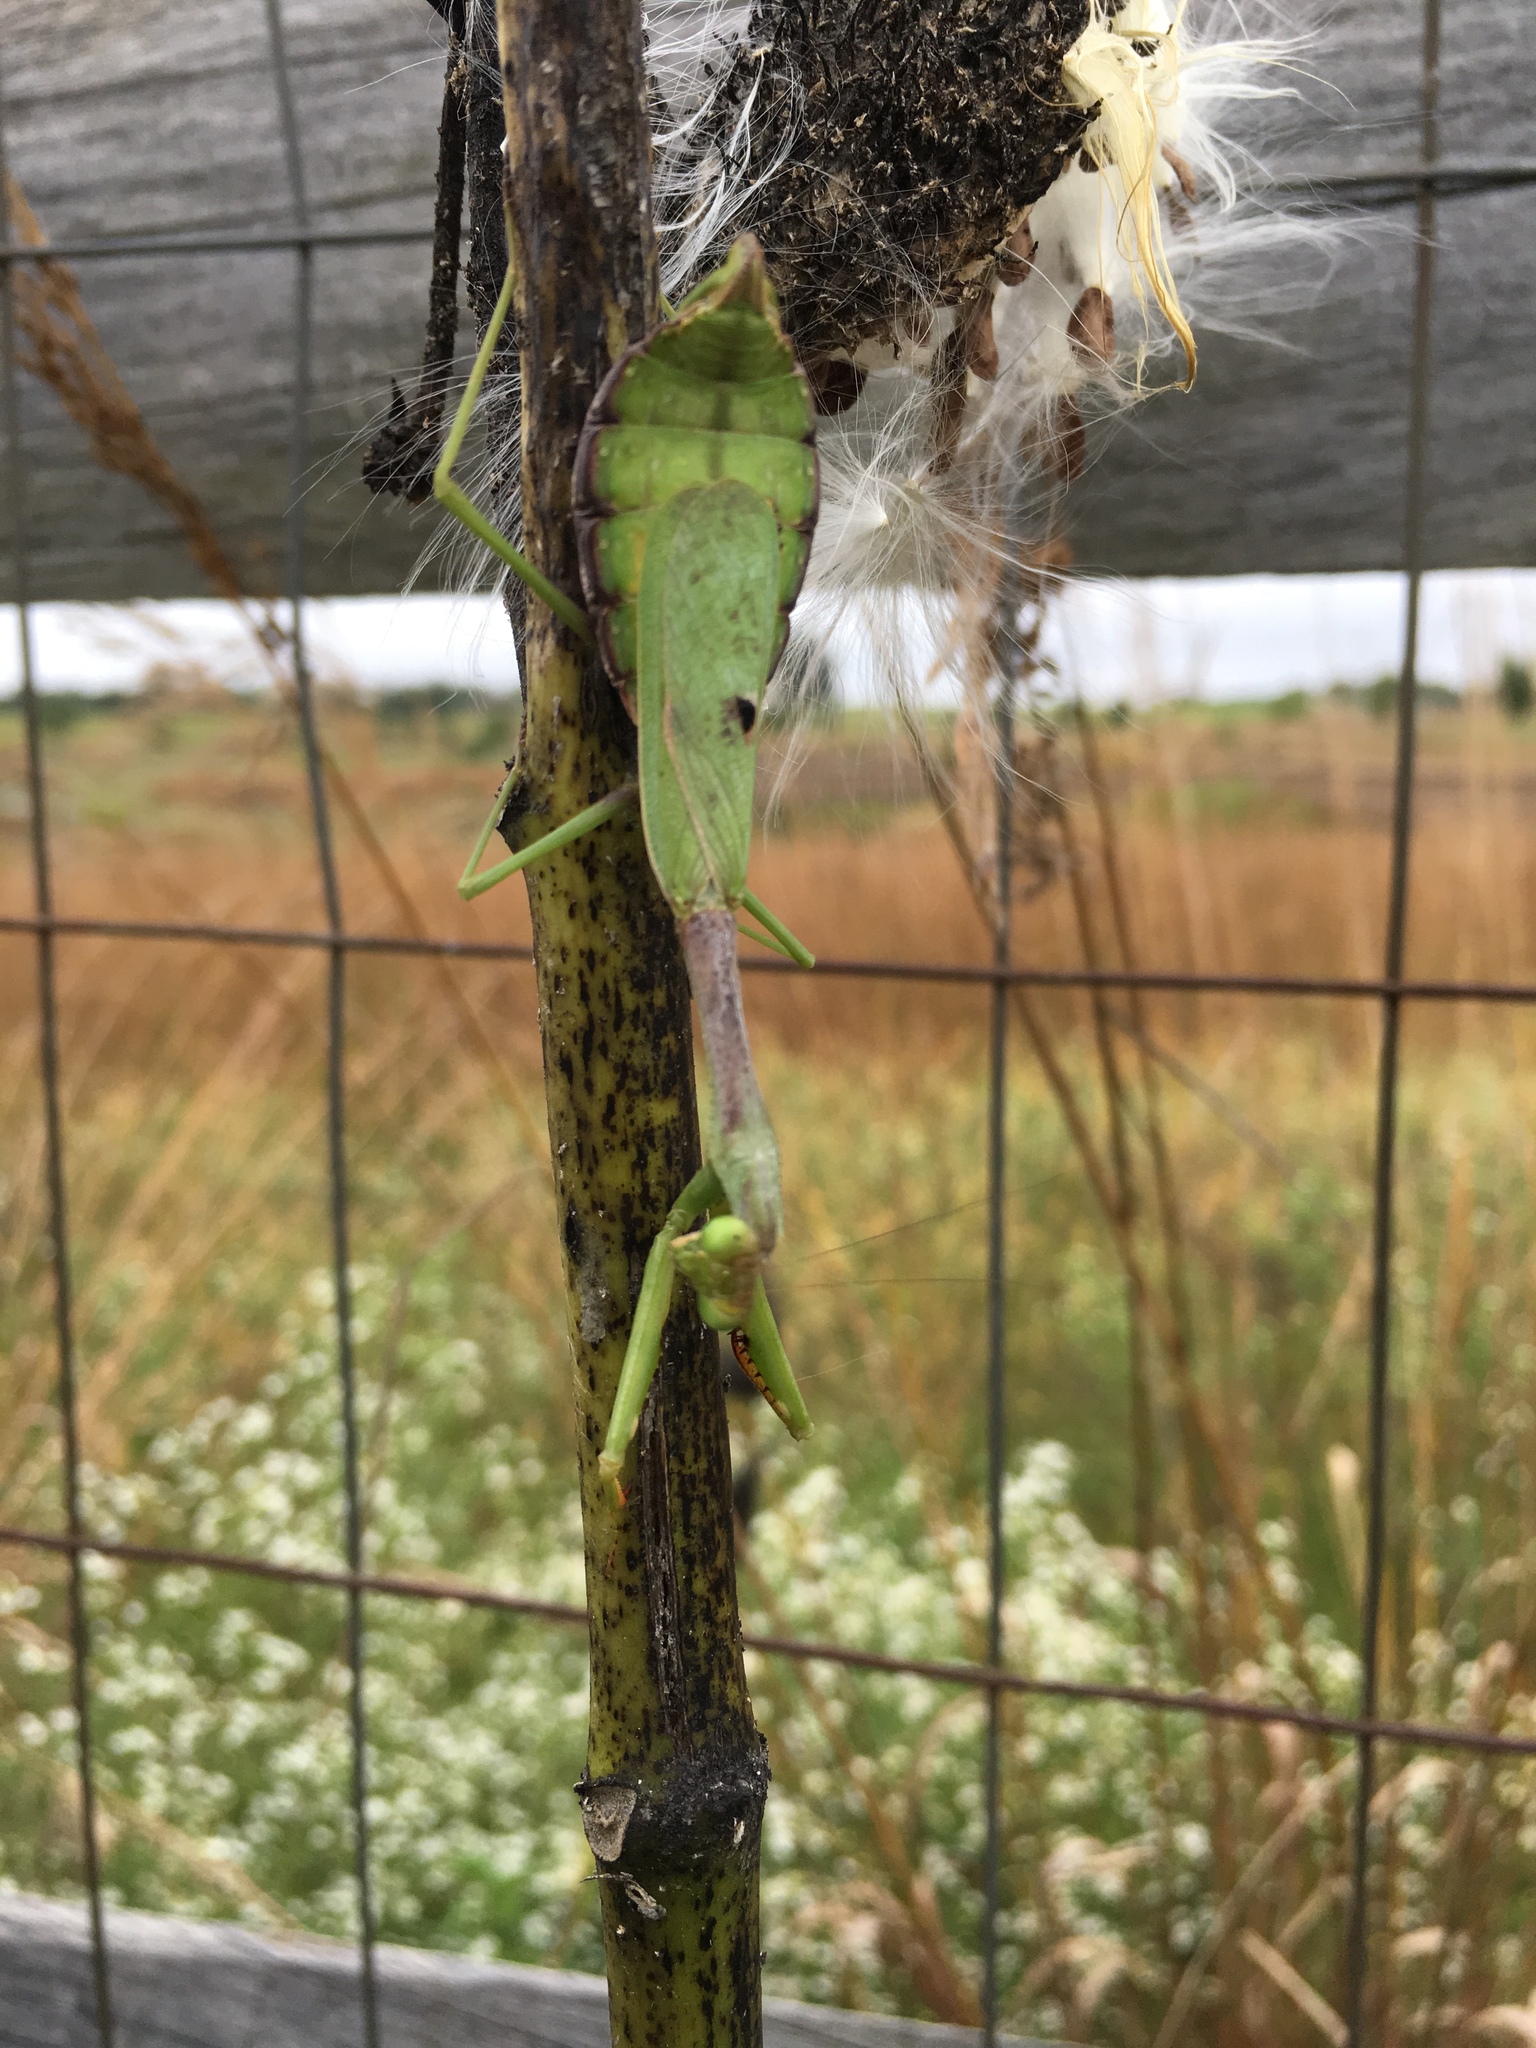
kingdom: Animalia
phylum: Arthropoda
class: Insecta
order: Mantodea
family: Mantidae
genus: Stagmomantis
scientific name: Stagmomantis carolina
